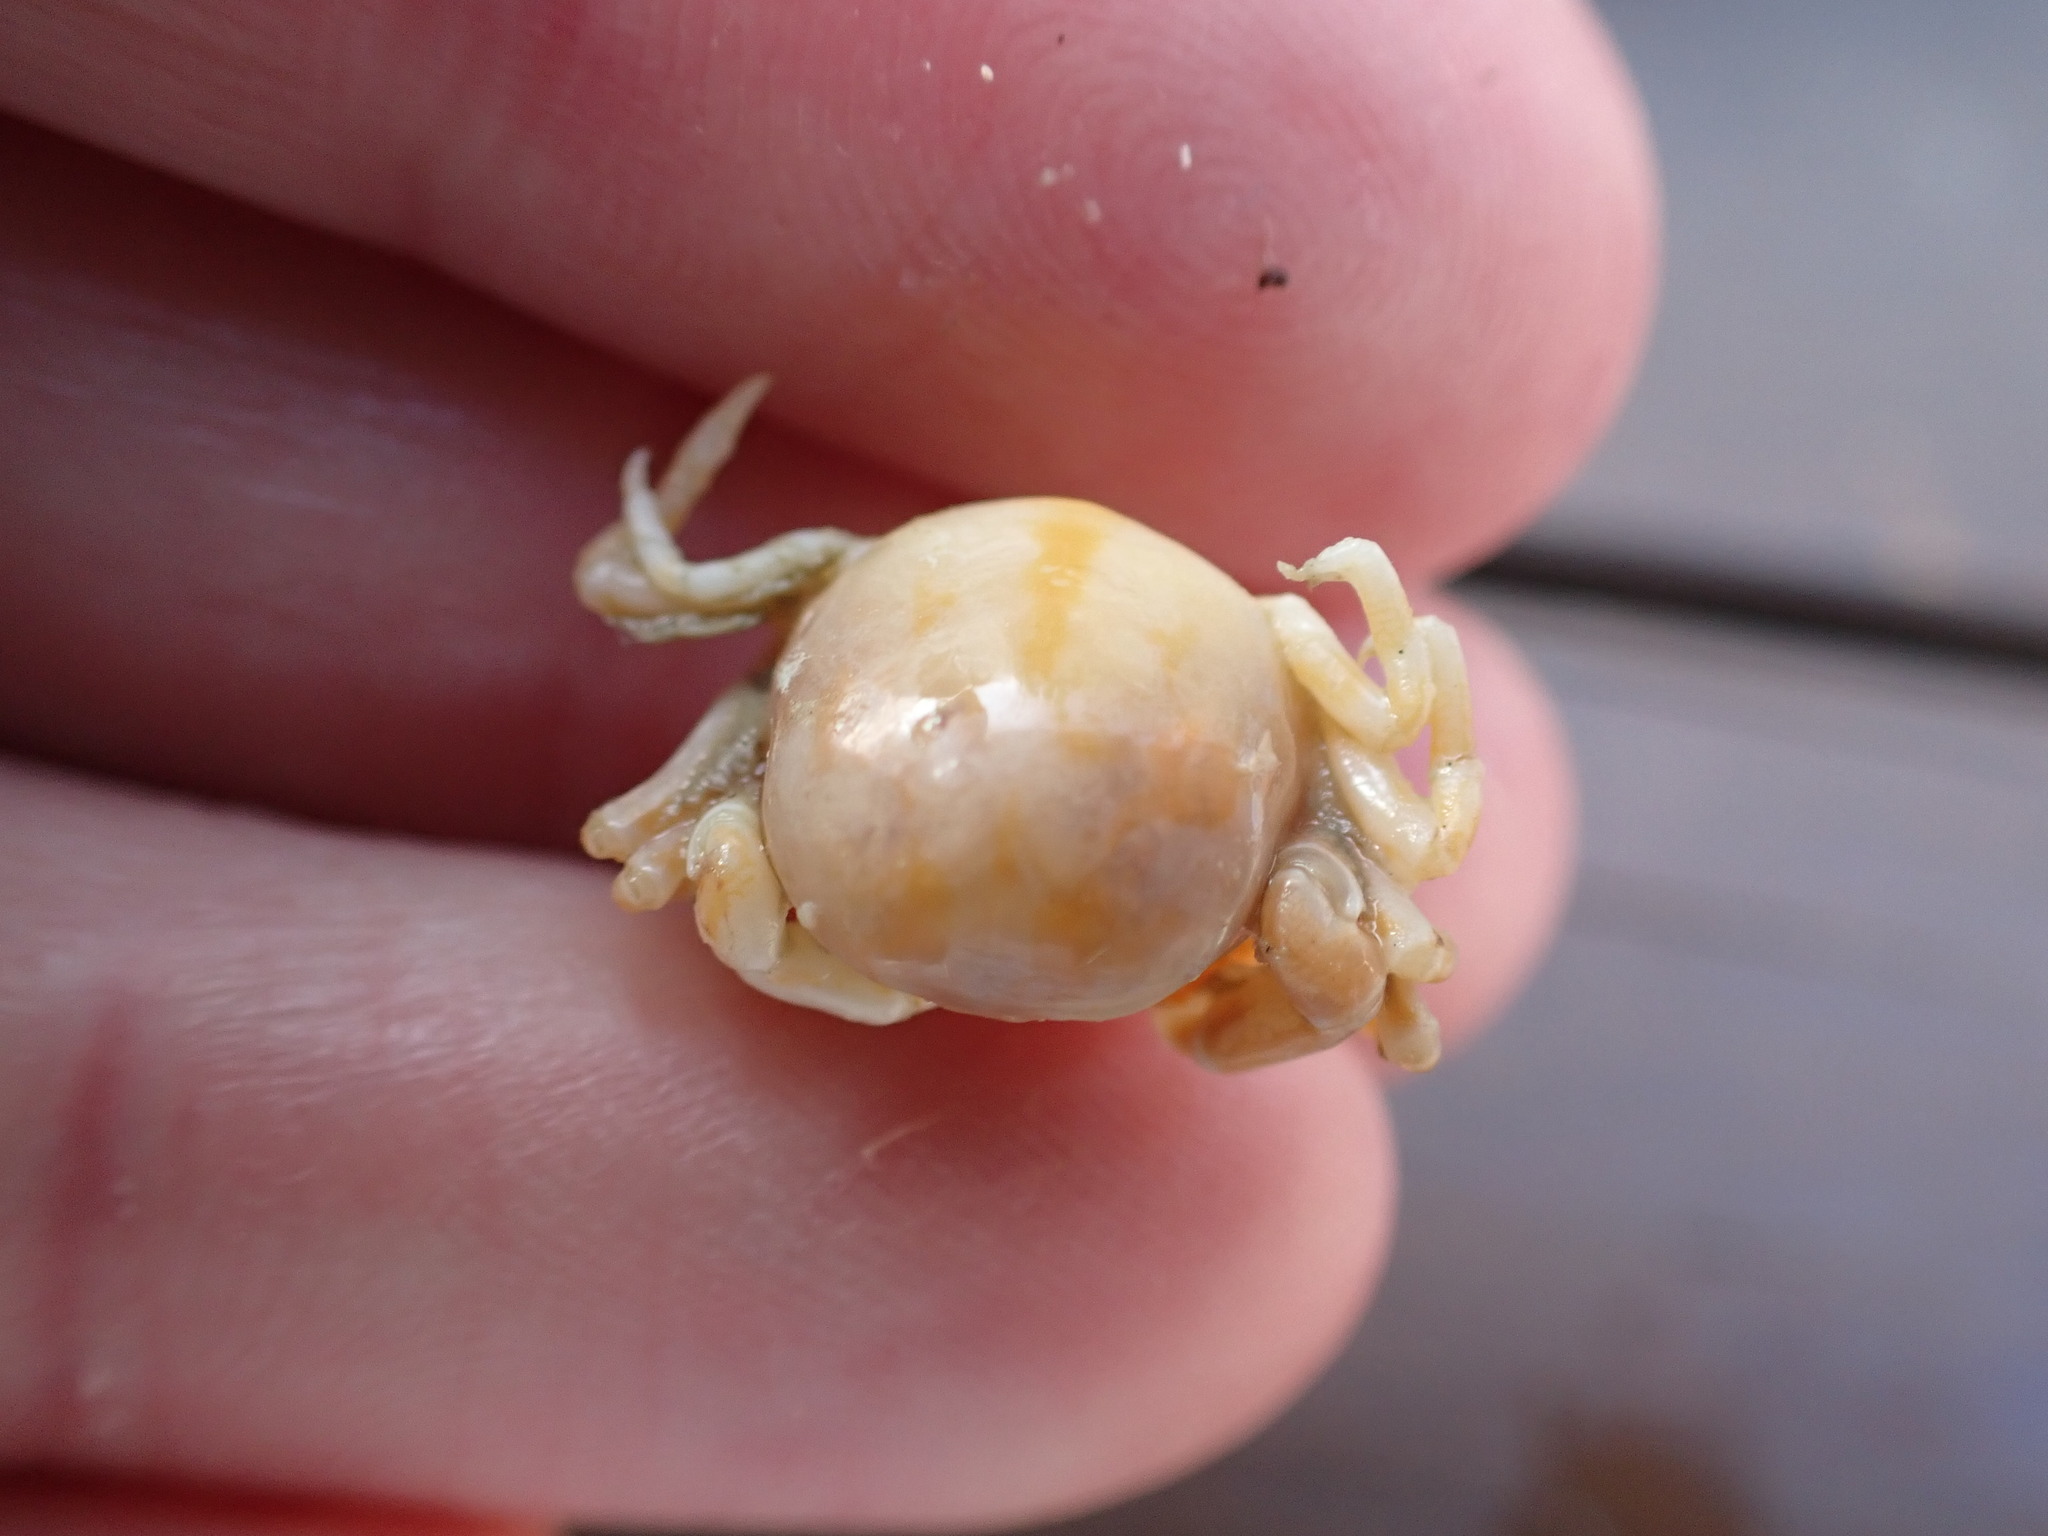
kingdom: Animalia
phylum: Arthropoda
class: Malacostraca
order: Decapoda
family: Pinnotheridae
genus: Nepinnotheres
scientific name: Nepinnotheres novaezelandiae
